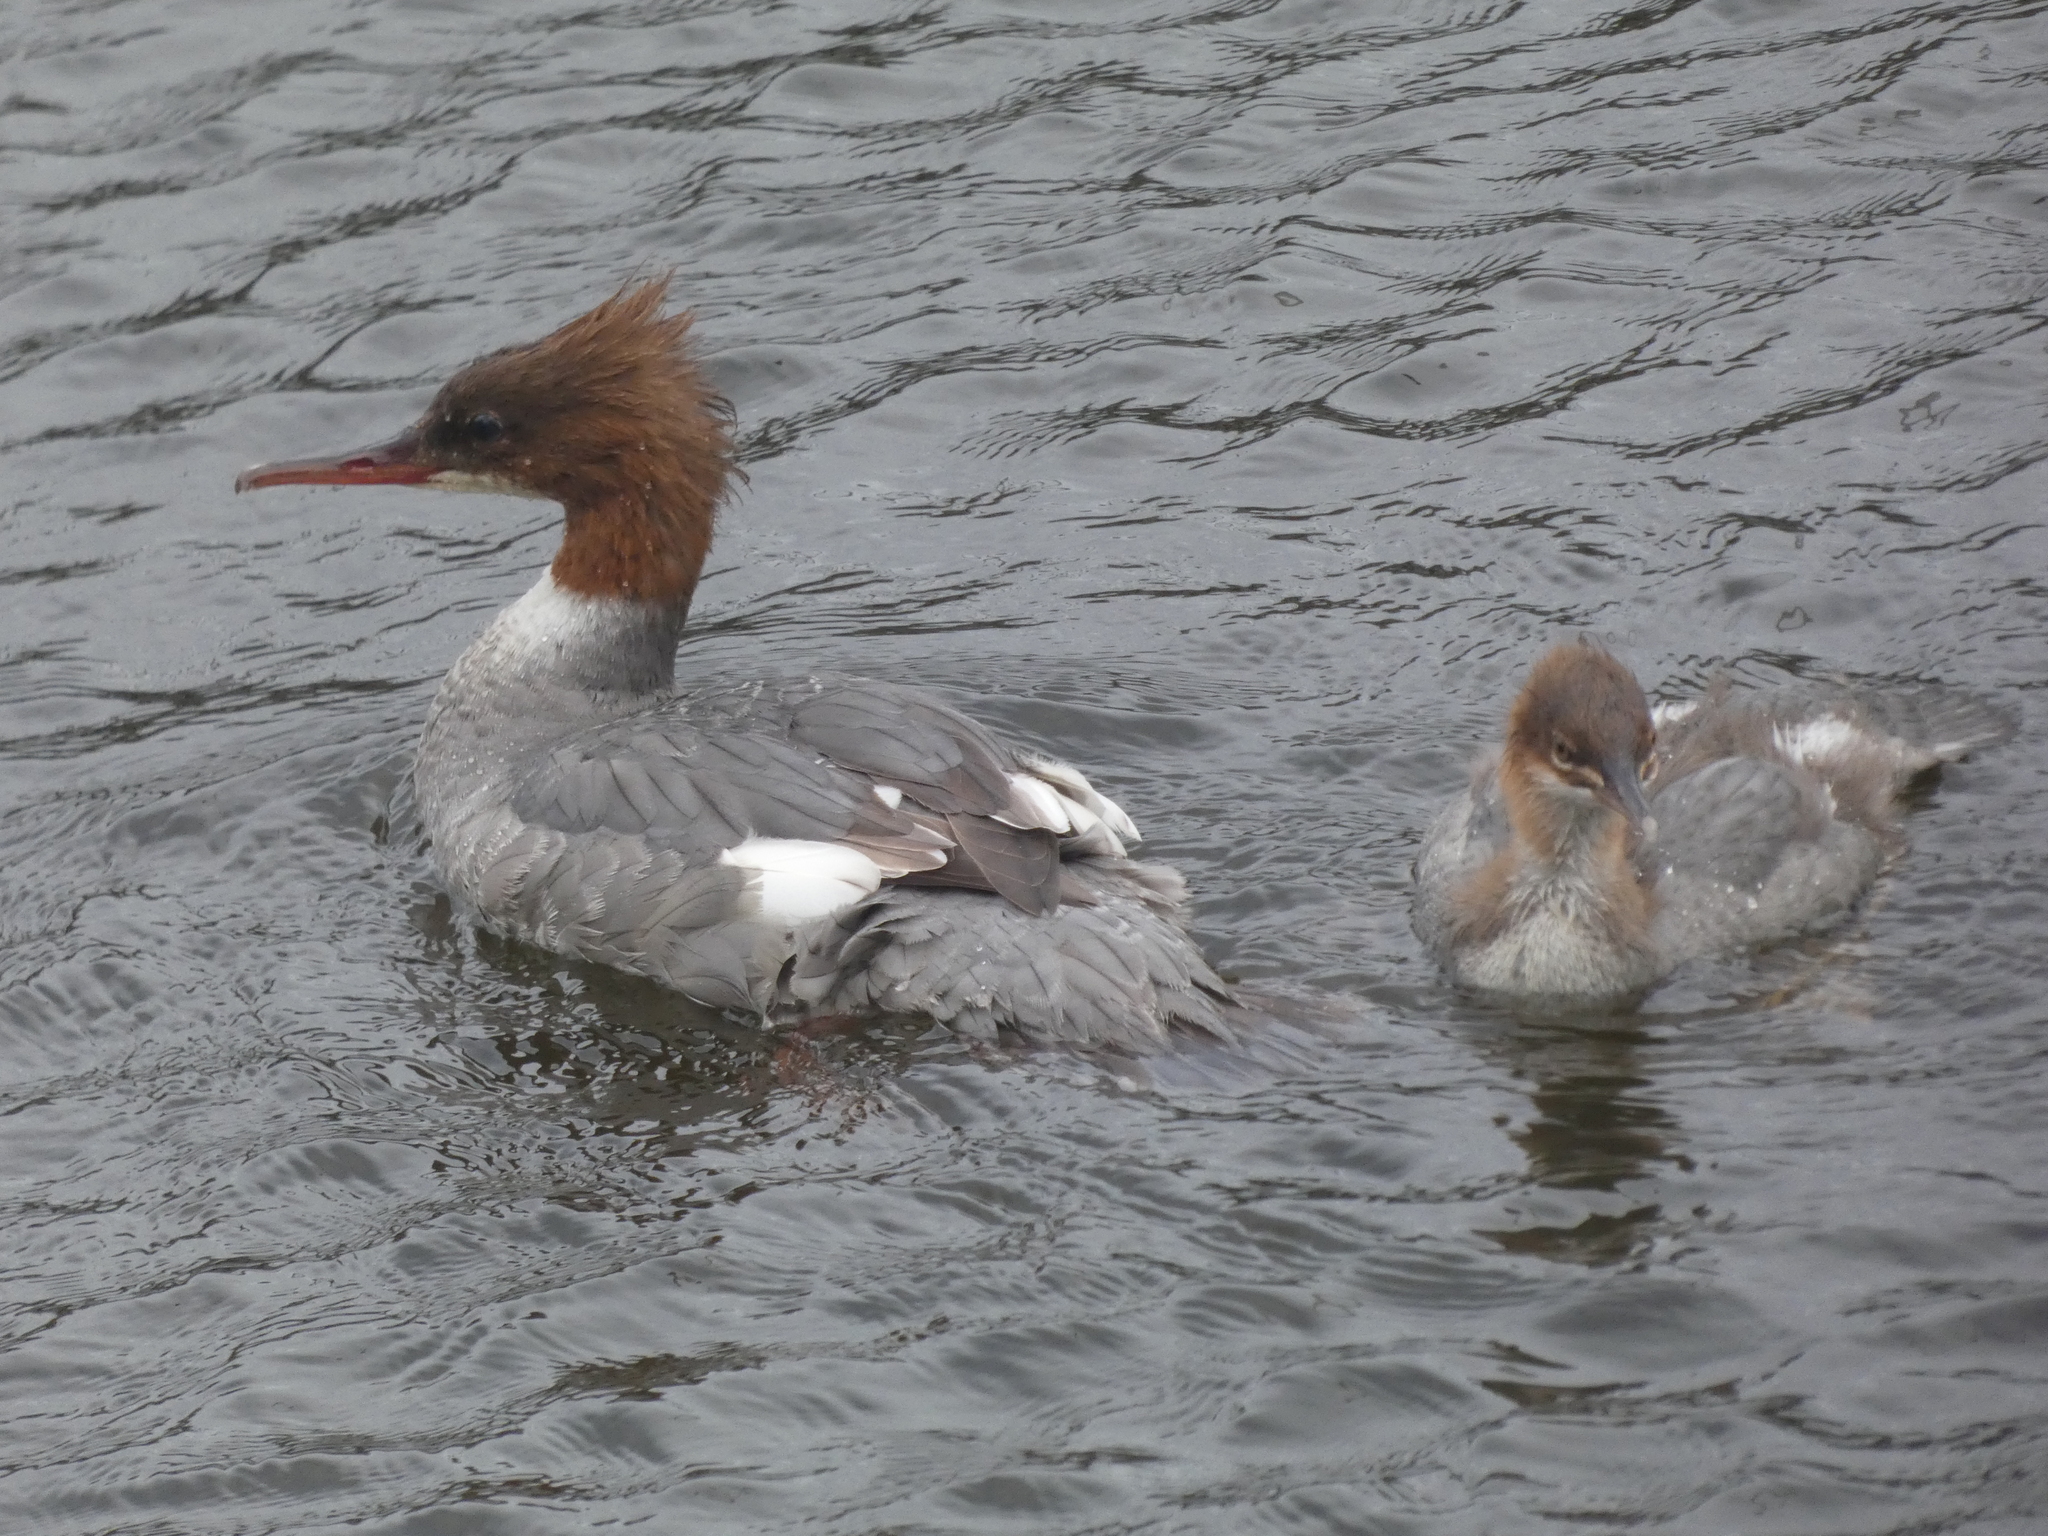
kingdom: Animalia
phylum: Chordata
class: Aves
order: Anseriformes
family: Anatidae
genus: Mergus
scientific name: Mergus merganser
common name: Common merganser
